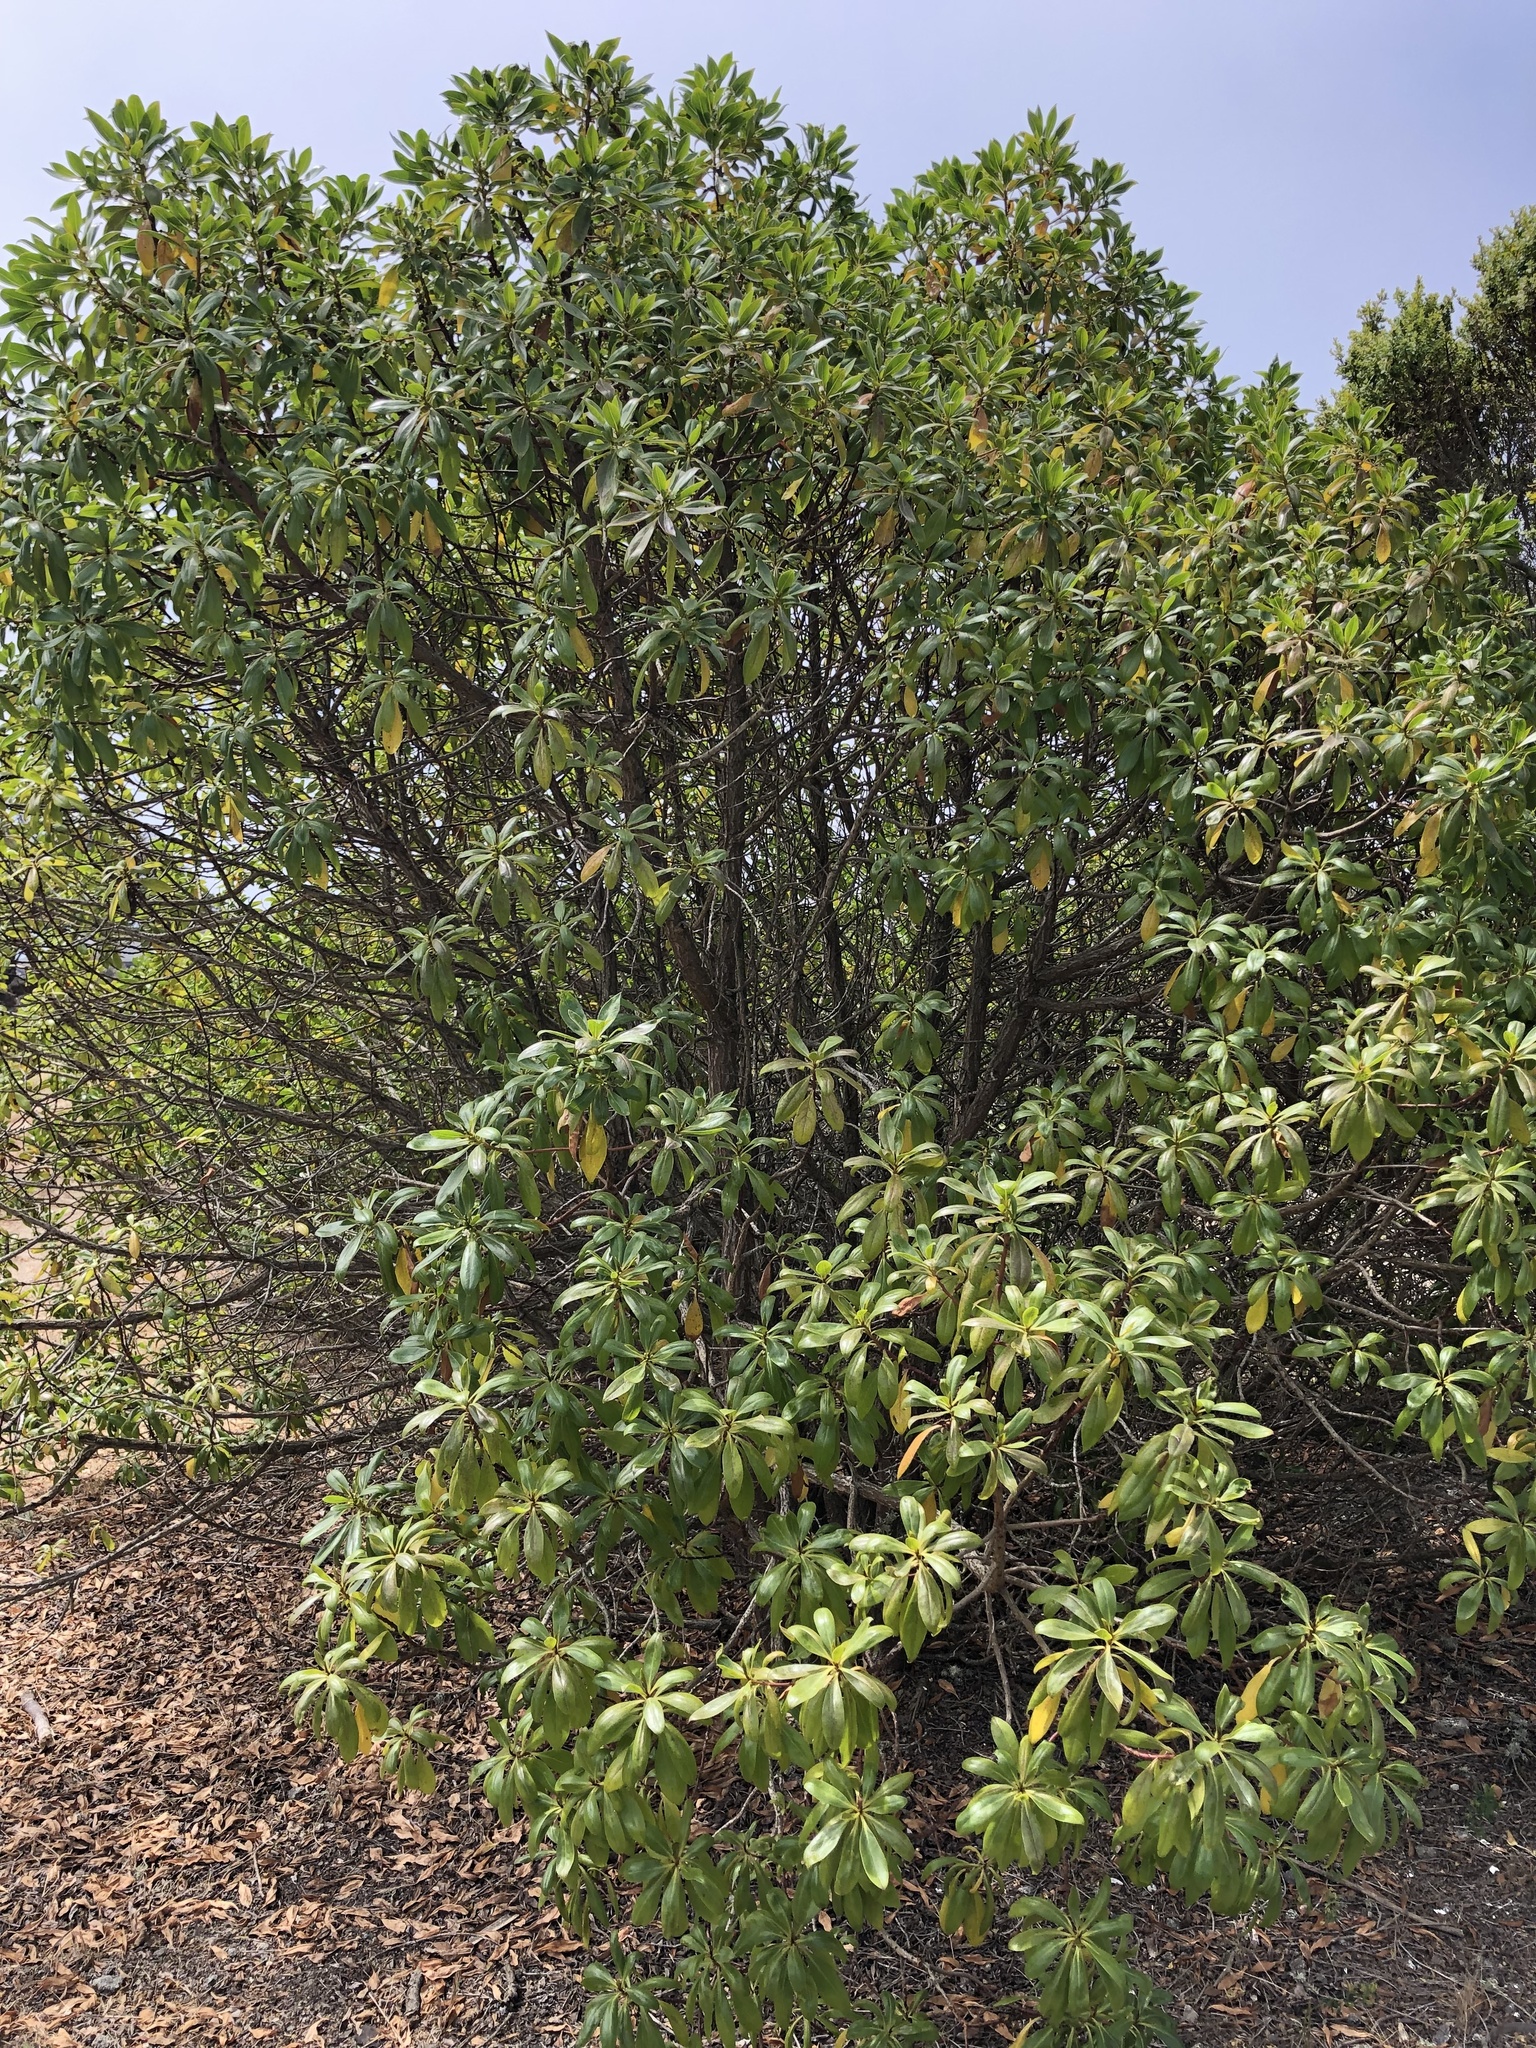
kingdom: Plantae
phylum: Tracheophyta
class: Magnoliopsida
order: Asterales
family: Asteraceae
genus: Baccharis
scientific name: Baccharis pilularis
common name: Coyotebrush
